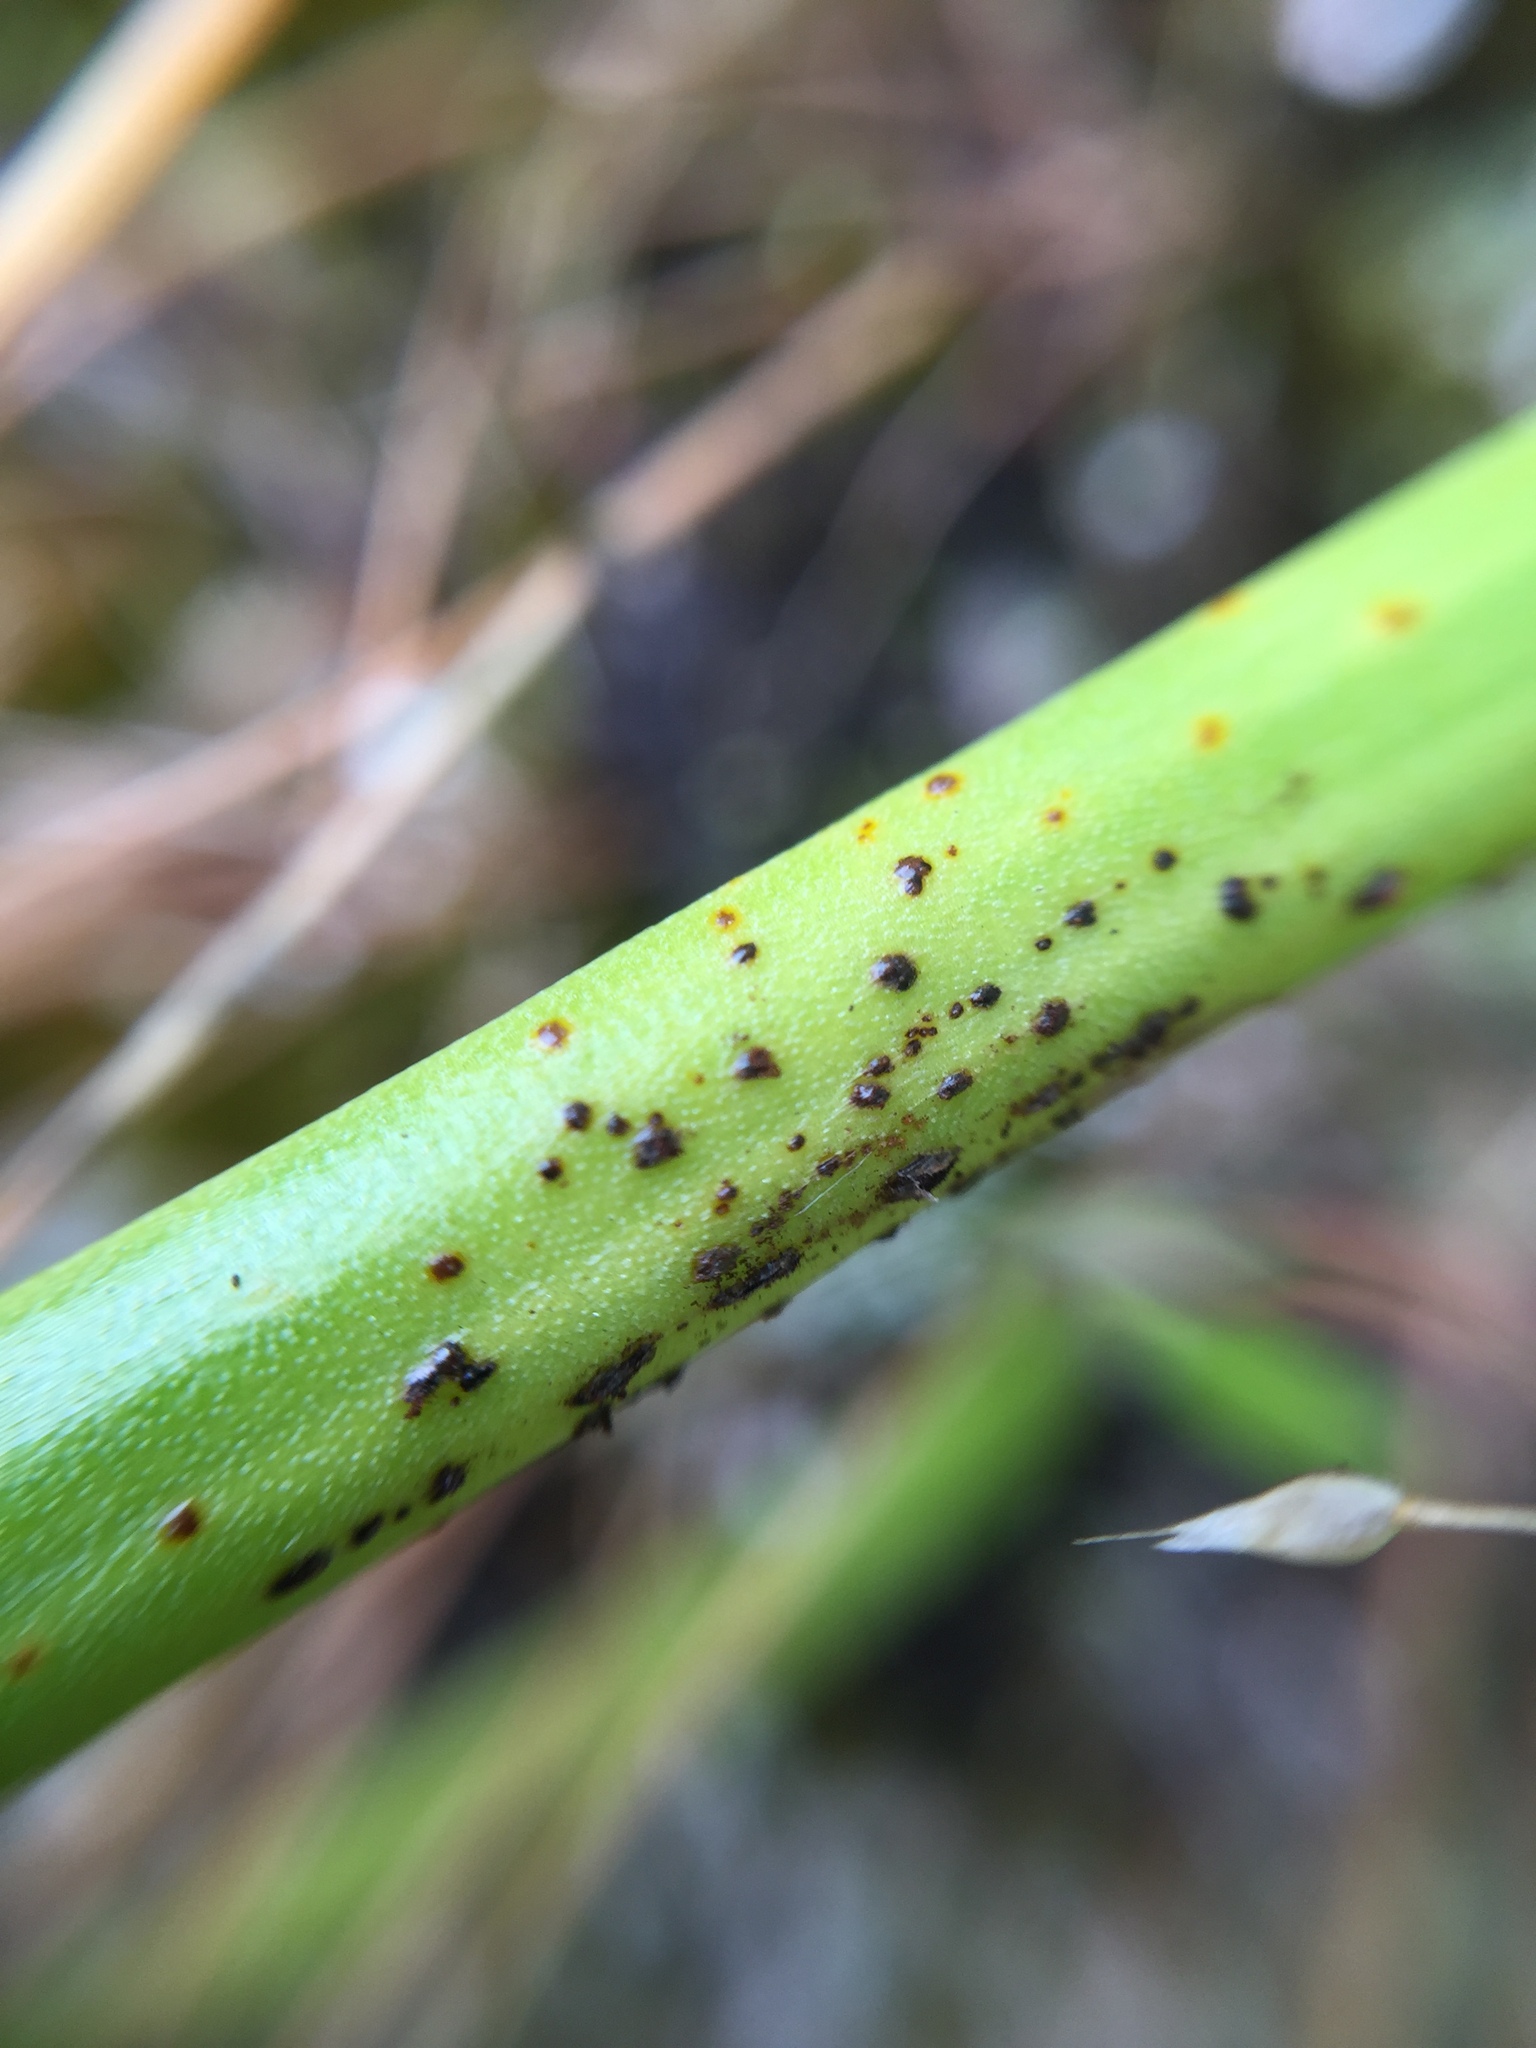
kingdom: Fungi
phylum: Basidiomycota
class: Pucciniomycetes
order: Pucciniales
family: Pucciniaceae
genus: Uromyces
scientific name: Uromyces microtidis
